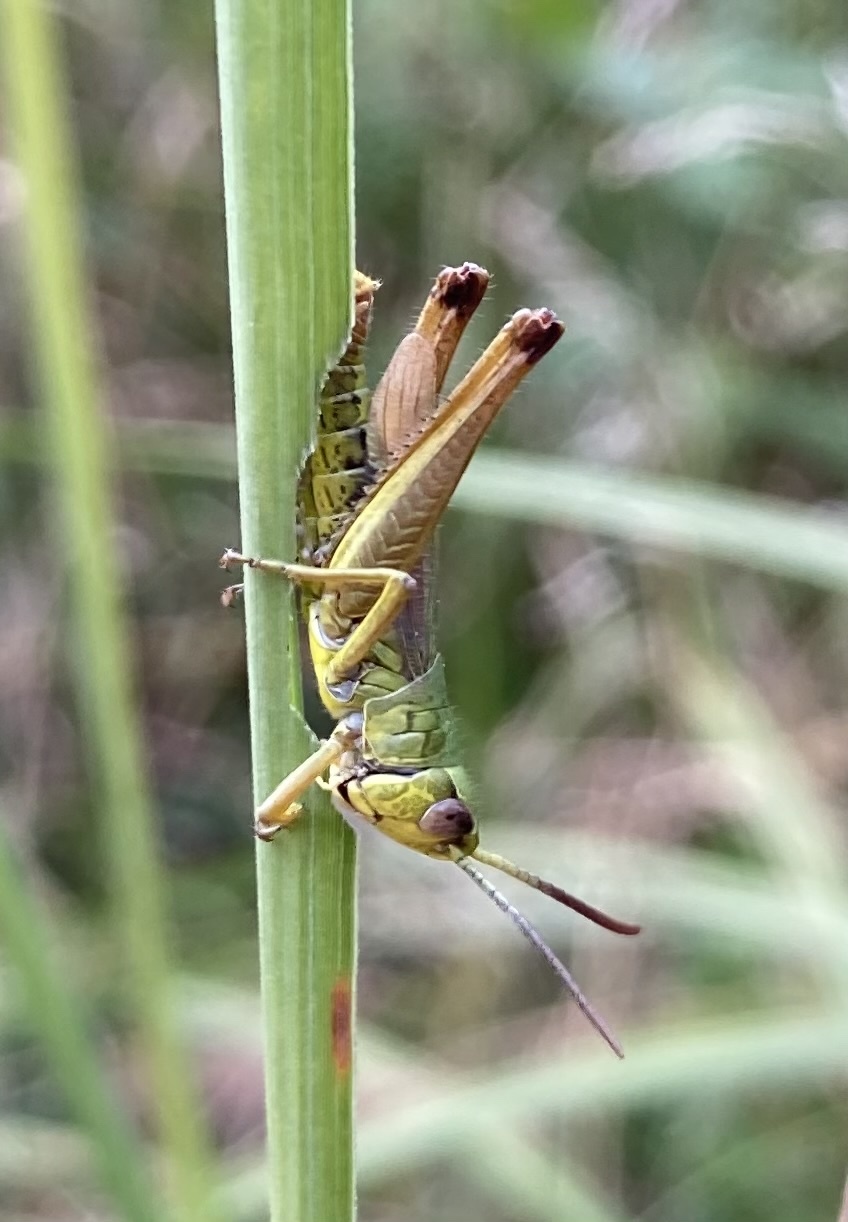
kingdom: Animalia
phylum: Arthropoda
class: Insecta
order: Orthoptera
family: Acrididae
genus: Pseudochorthippus
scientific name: Pseudochorthippus parallelus
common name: Meadow grasshopper
